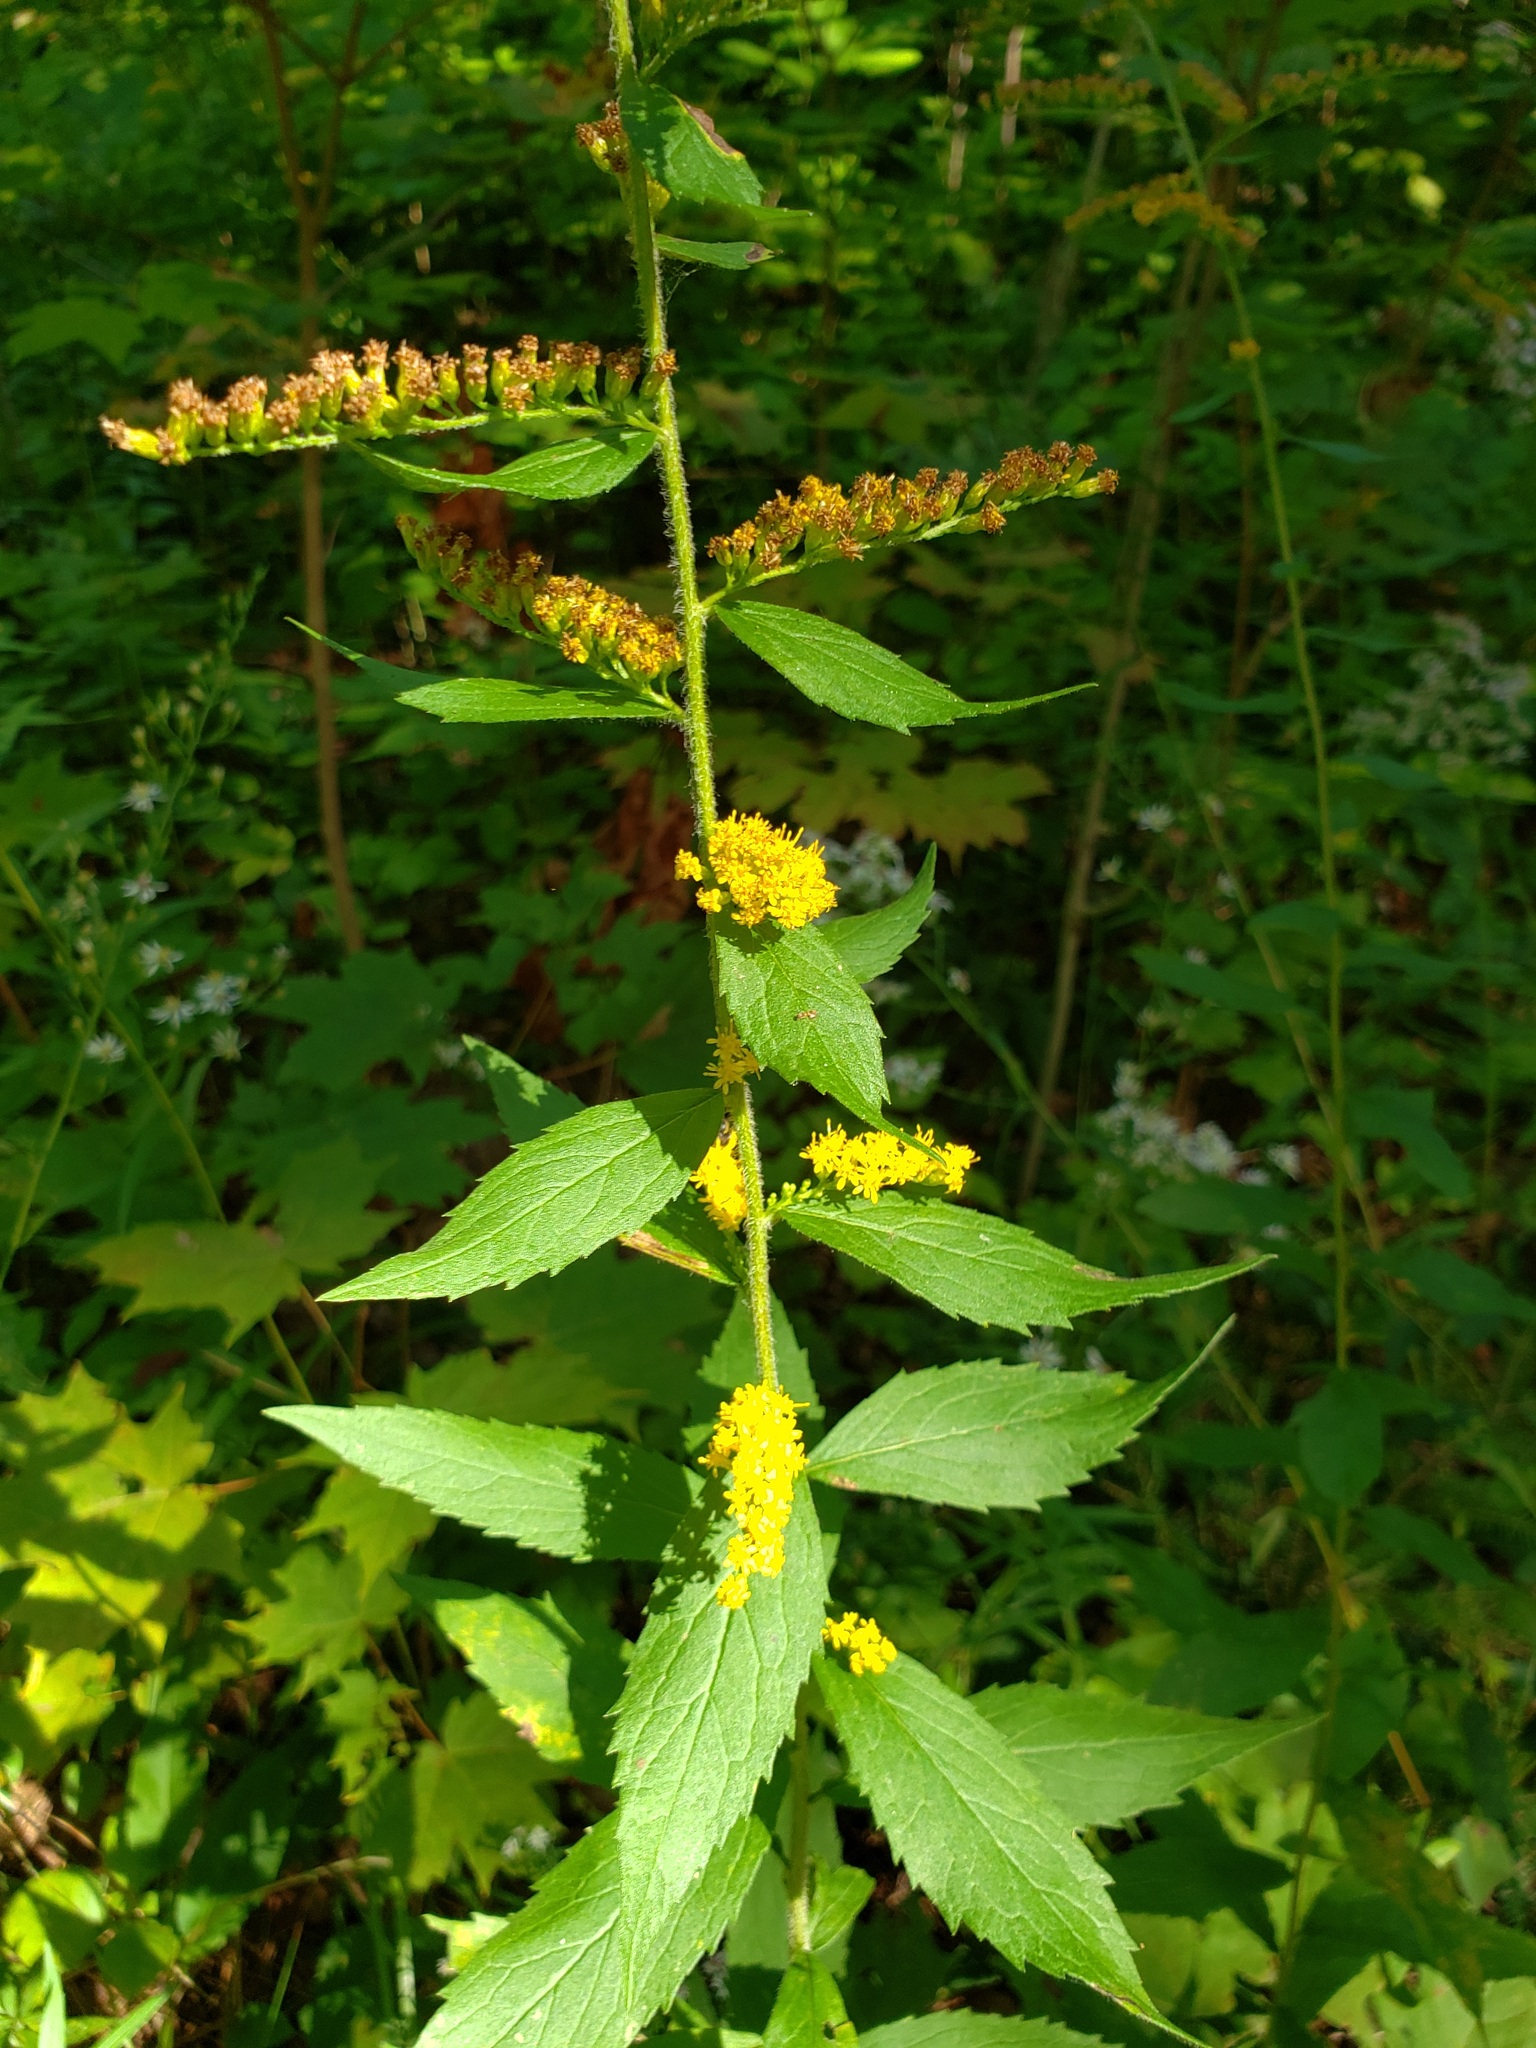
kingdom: Plantae
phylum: Tracheophyta
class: Magnoliopsida
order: Asterales
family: Asteraceae
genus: Solidago
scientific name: Solidago rugosa
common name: Rough-stemmed goldenrod
